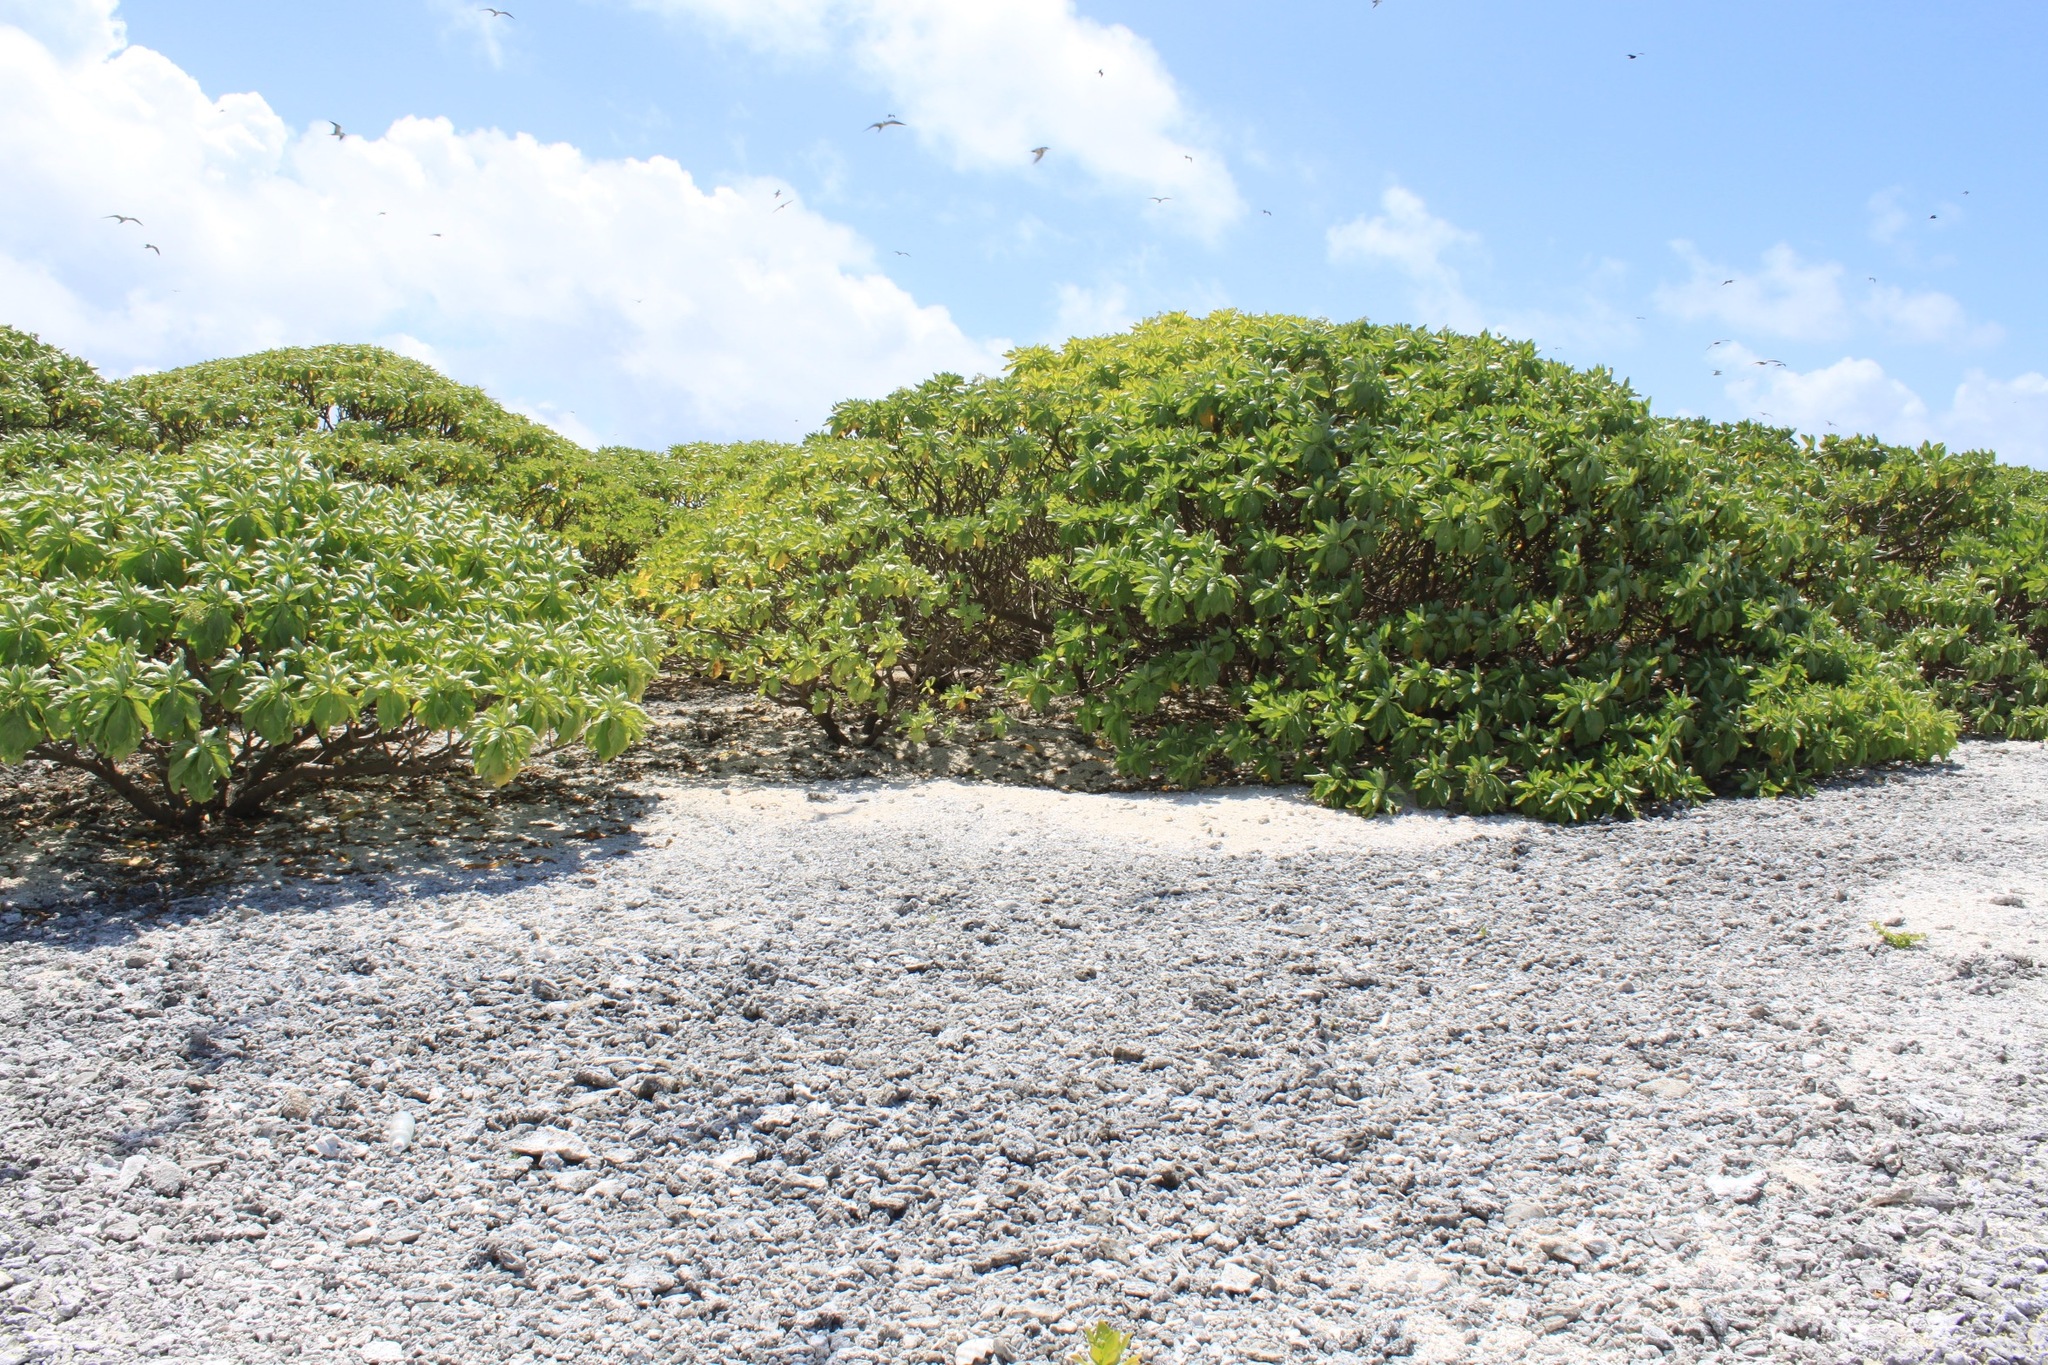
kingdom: Plantae
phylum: Tracheophyta
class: Magnoliopsida
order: Boraginales
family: Heliotropiaceae
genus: Heliotropium
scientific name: Heliotropium velutinum
